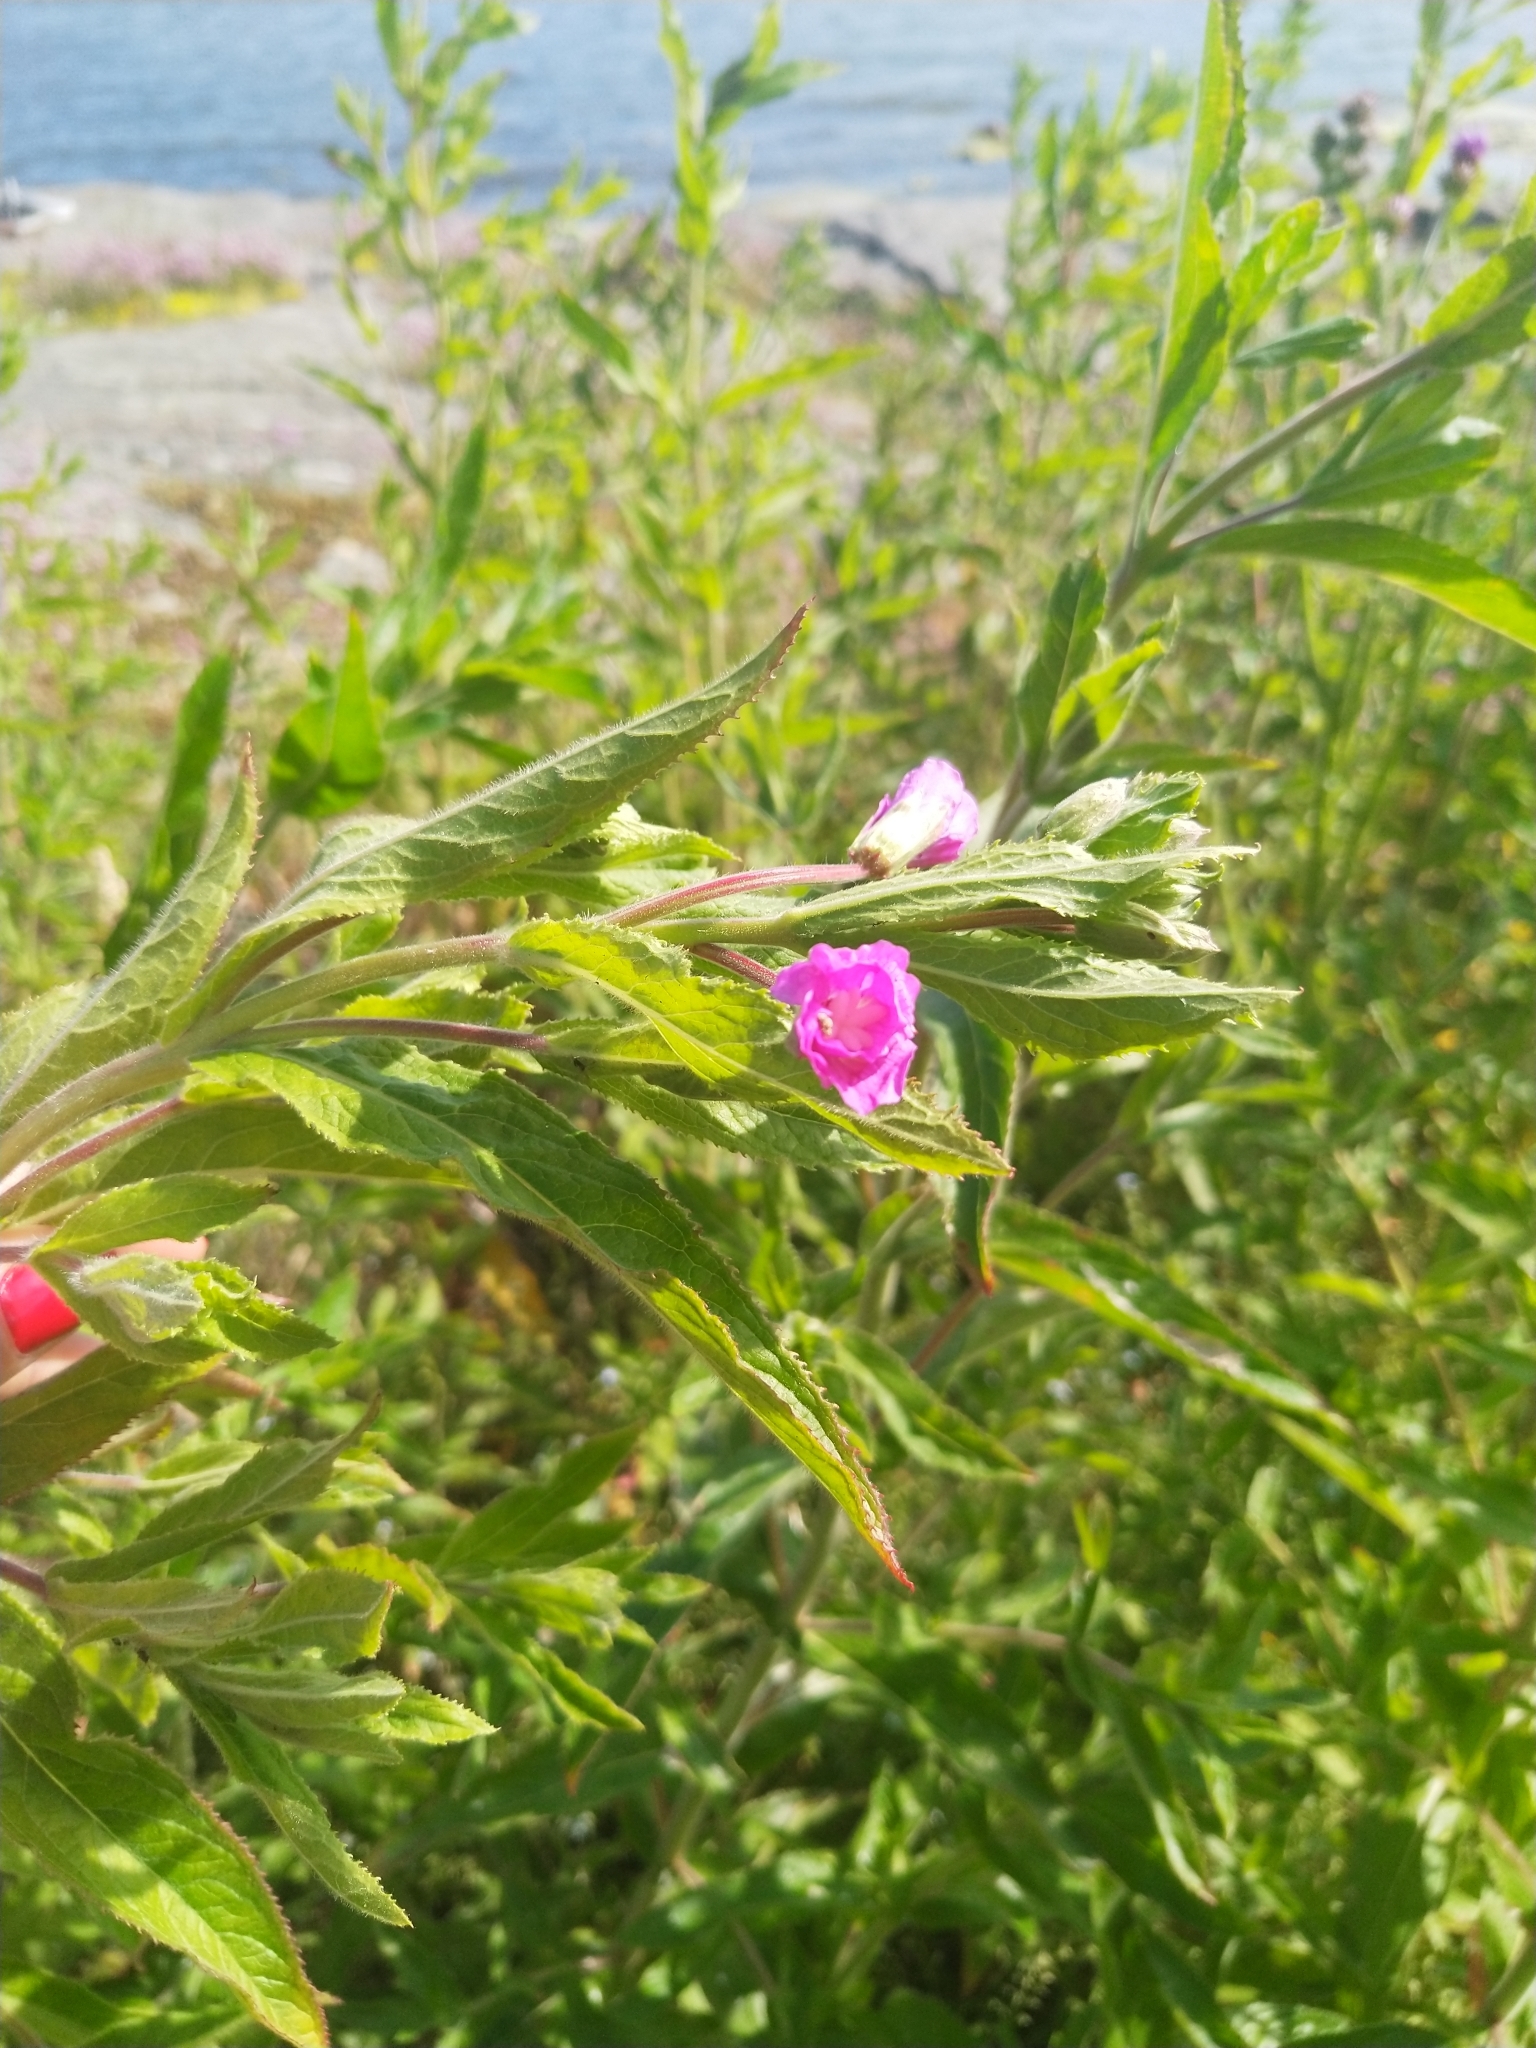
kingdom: Plantae
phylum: Tracheophyta
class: Magnoliopsida
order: Myrtales
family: Onagraceae
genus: Epilobium
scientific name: Epilobium hirsutum
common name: Great willowherb
